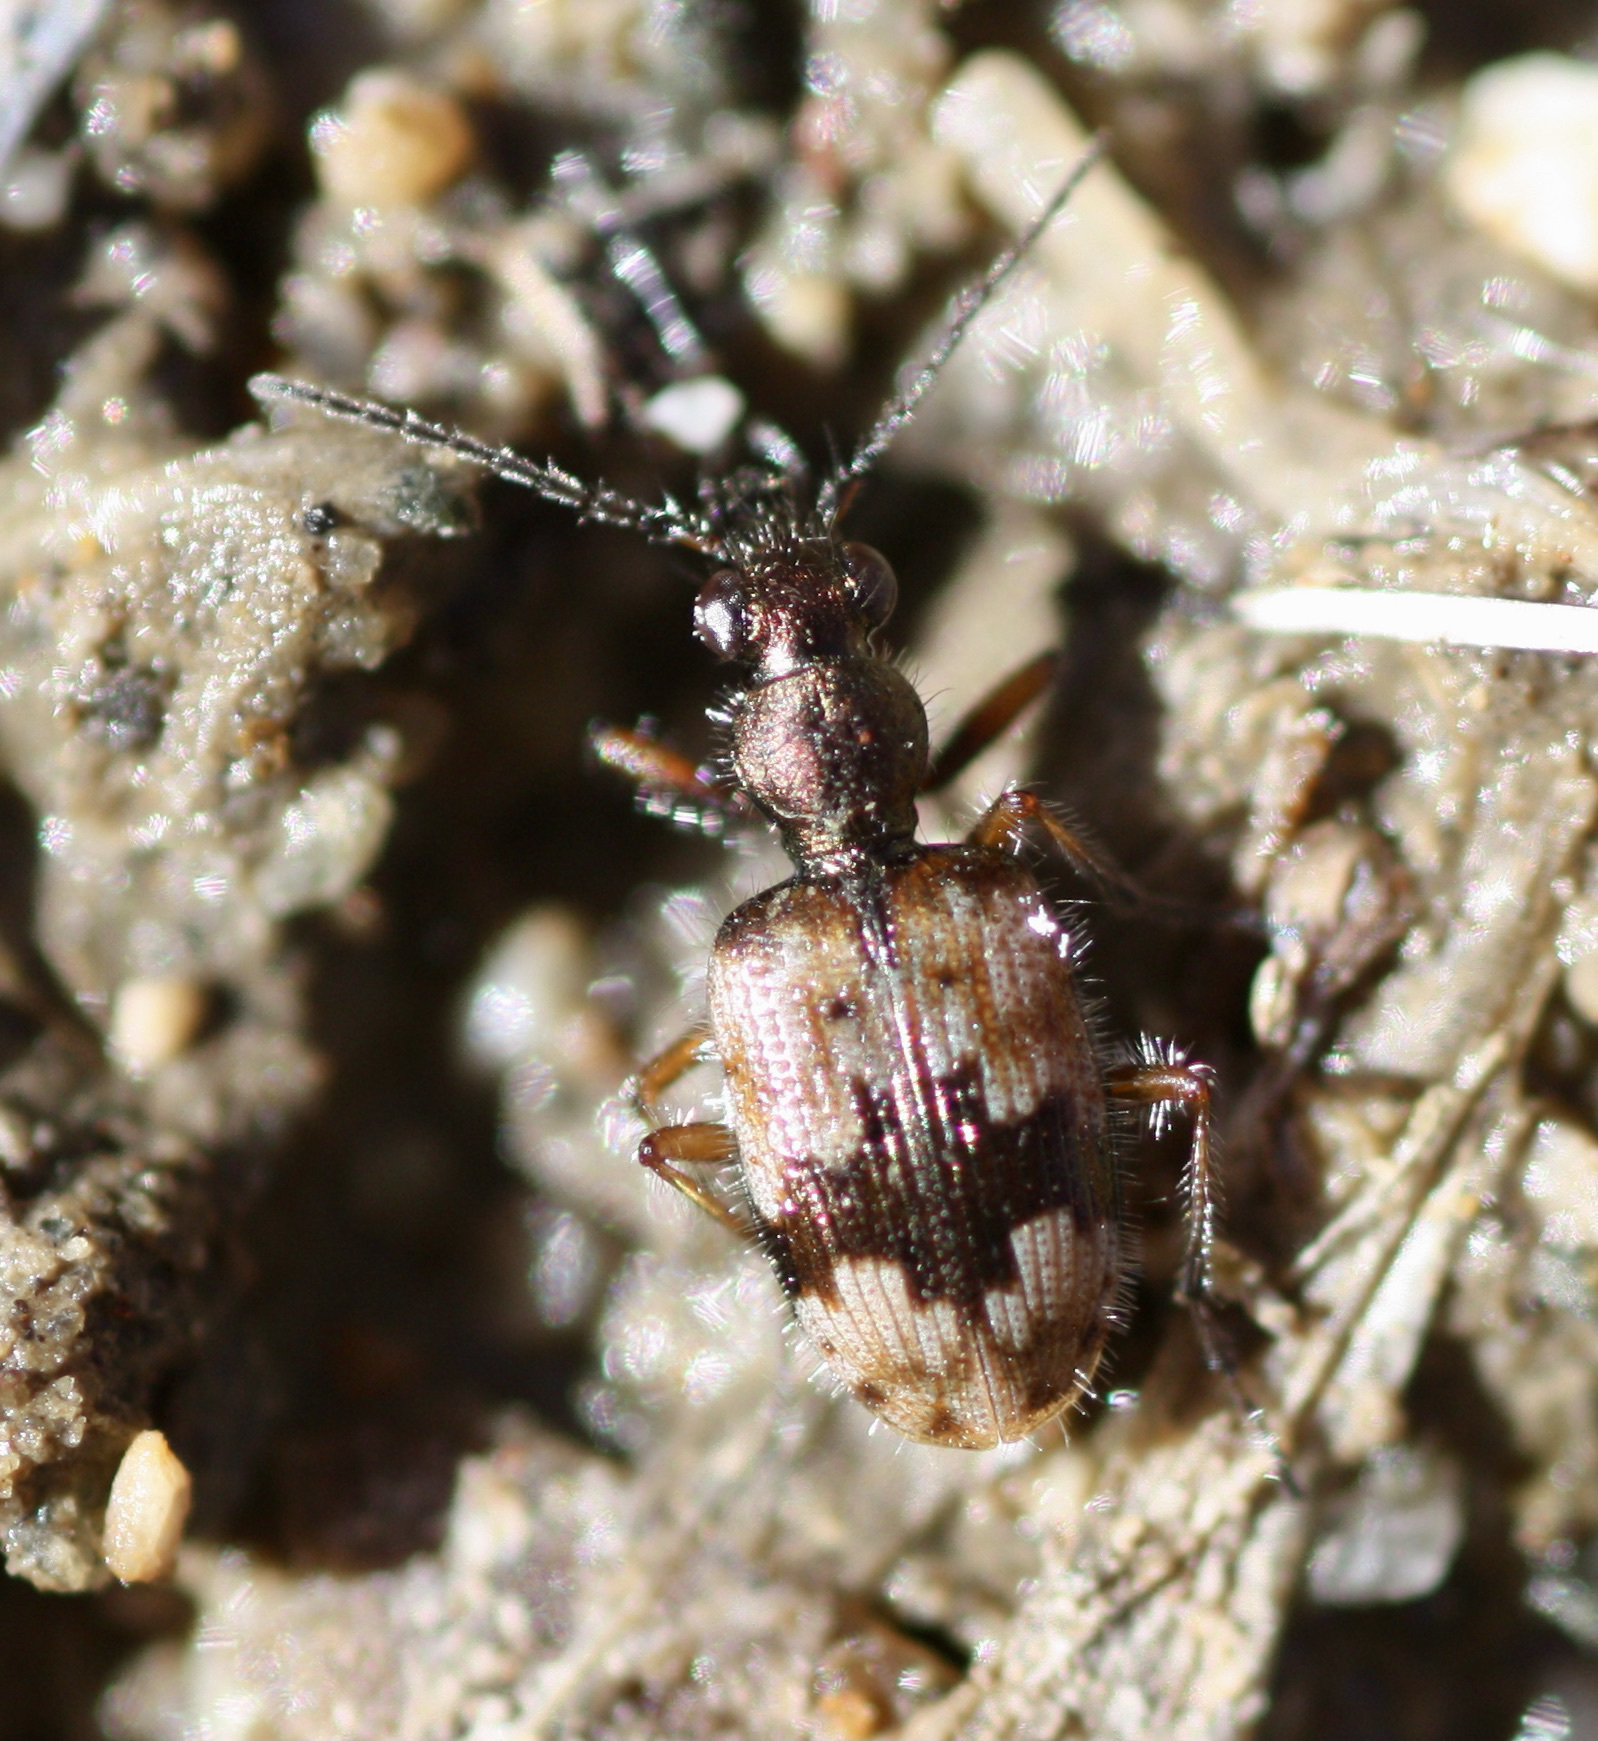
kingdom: Animalia
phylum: Arthropoda
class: Insecta
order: Coleoptera
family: Carabidae
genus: Lachnophorus
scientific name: Lachnophorus elegantulus
